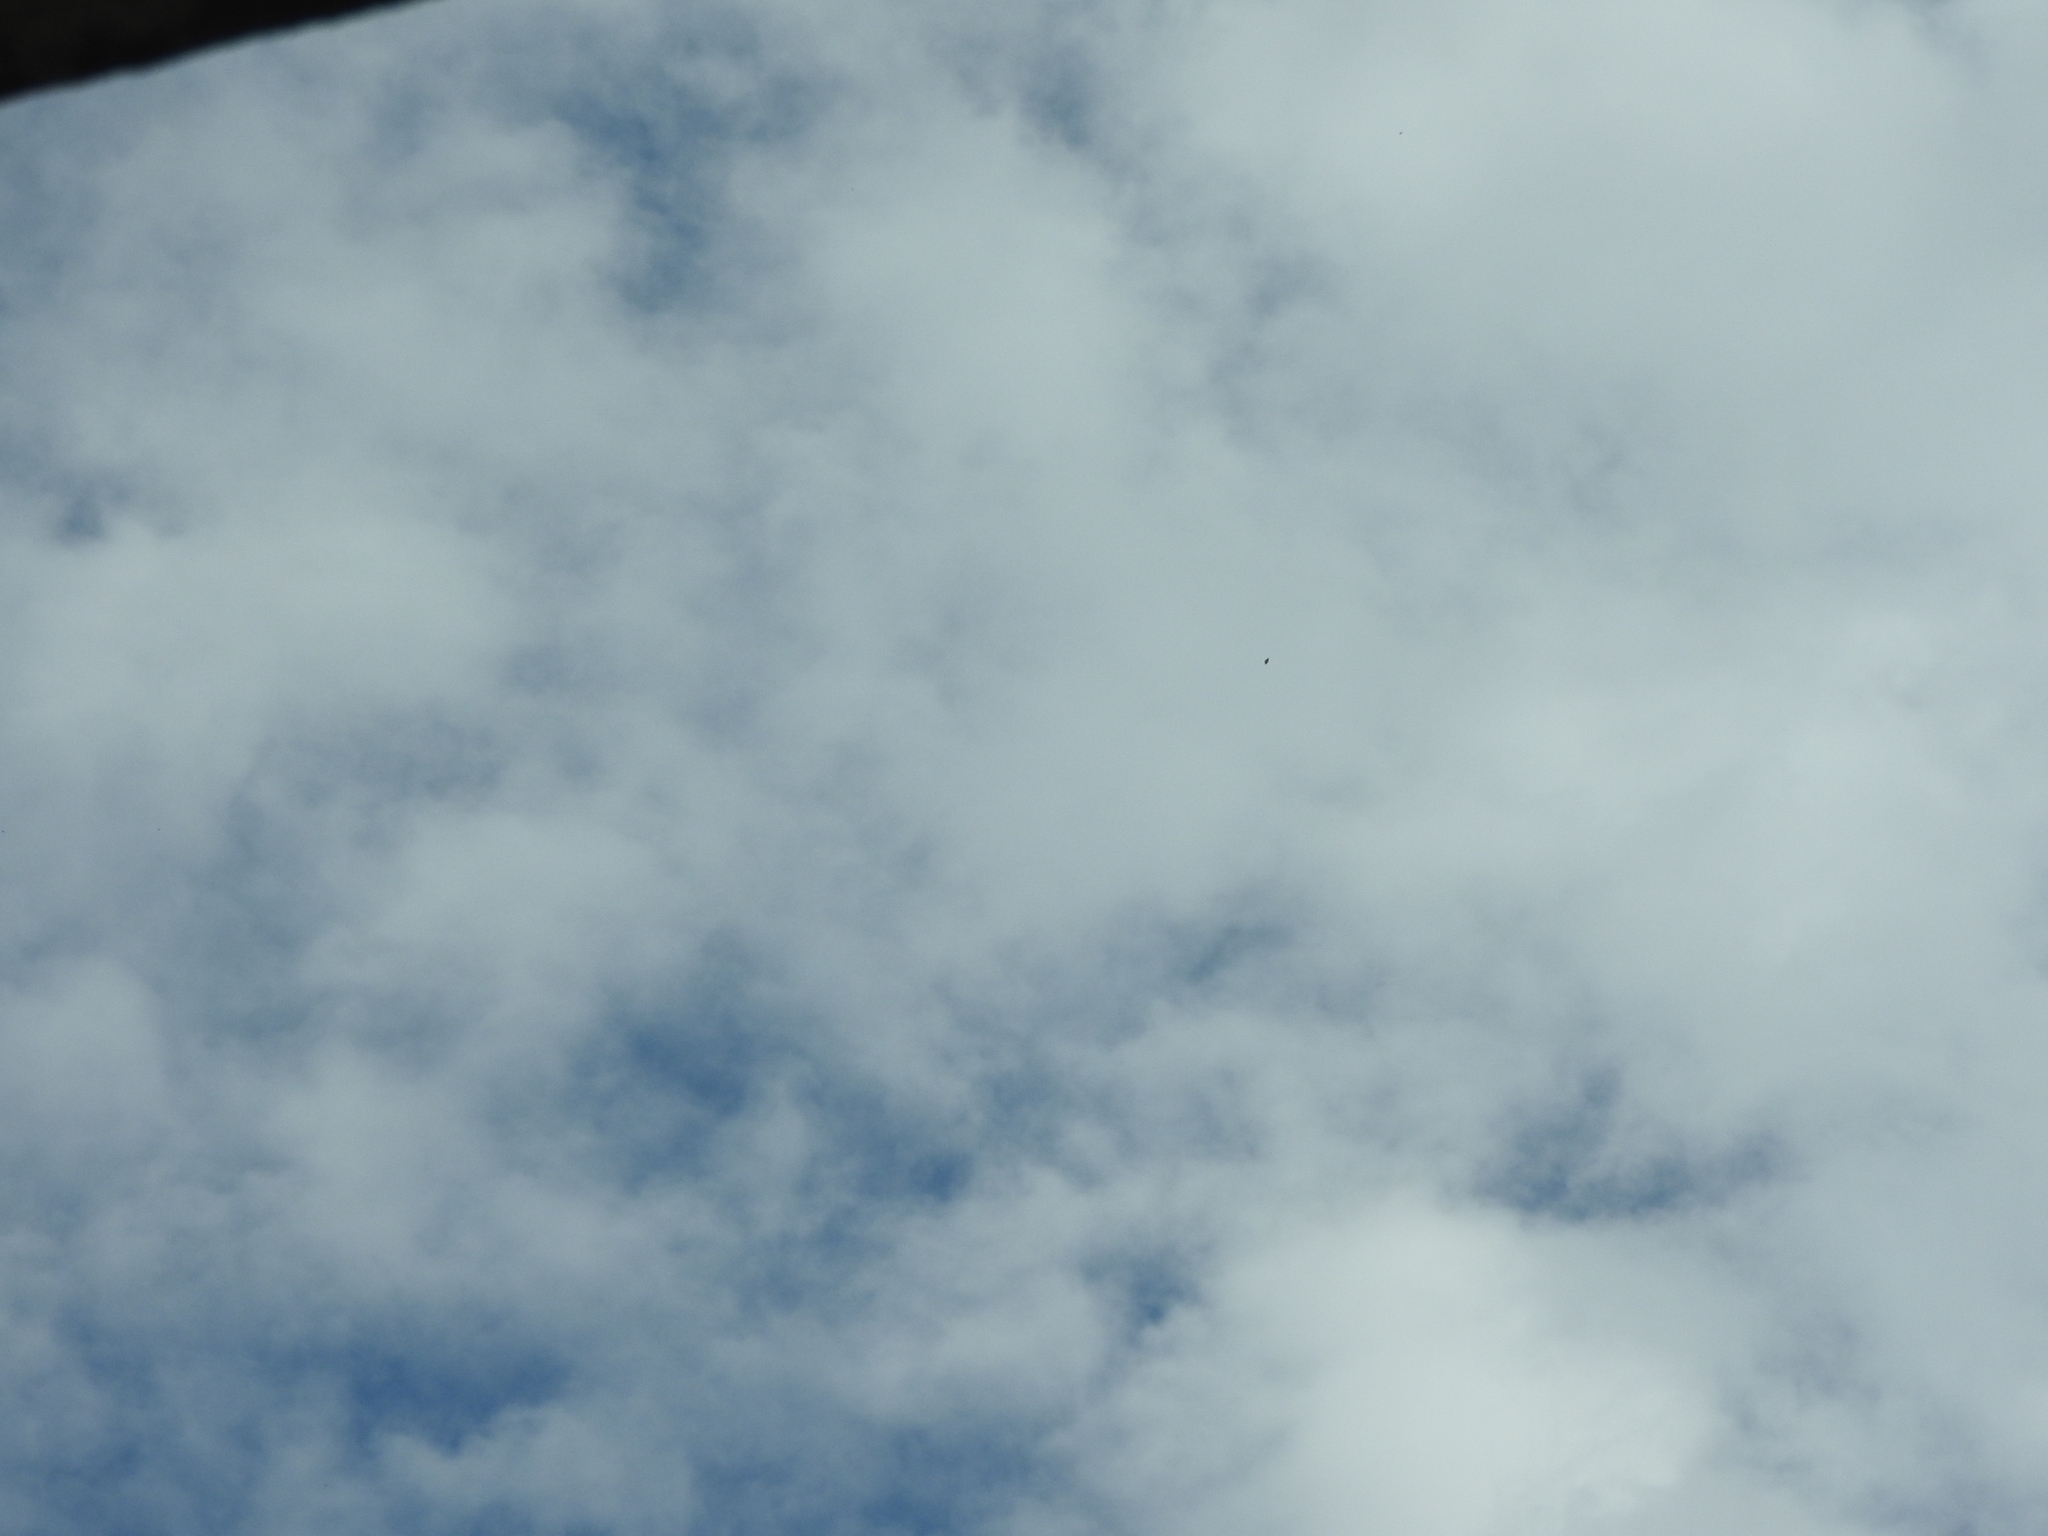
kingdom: Animalia
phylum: Arthropoda
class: Insecta
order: Lepidoptera
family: Nymphalidae
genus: Danaus
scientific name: Danaus plexippus
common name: Monarch
